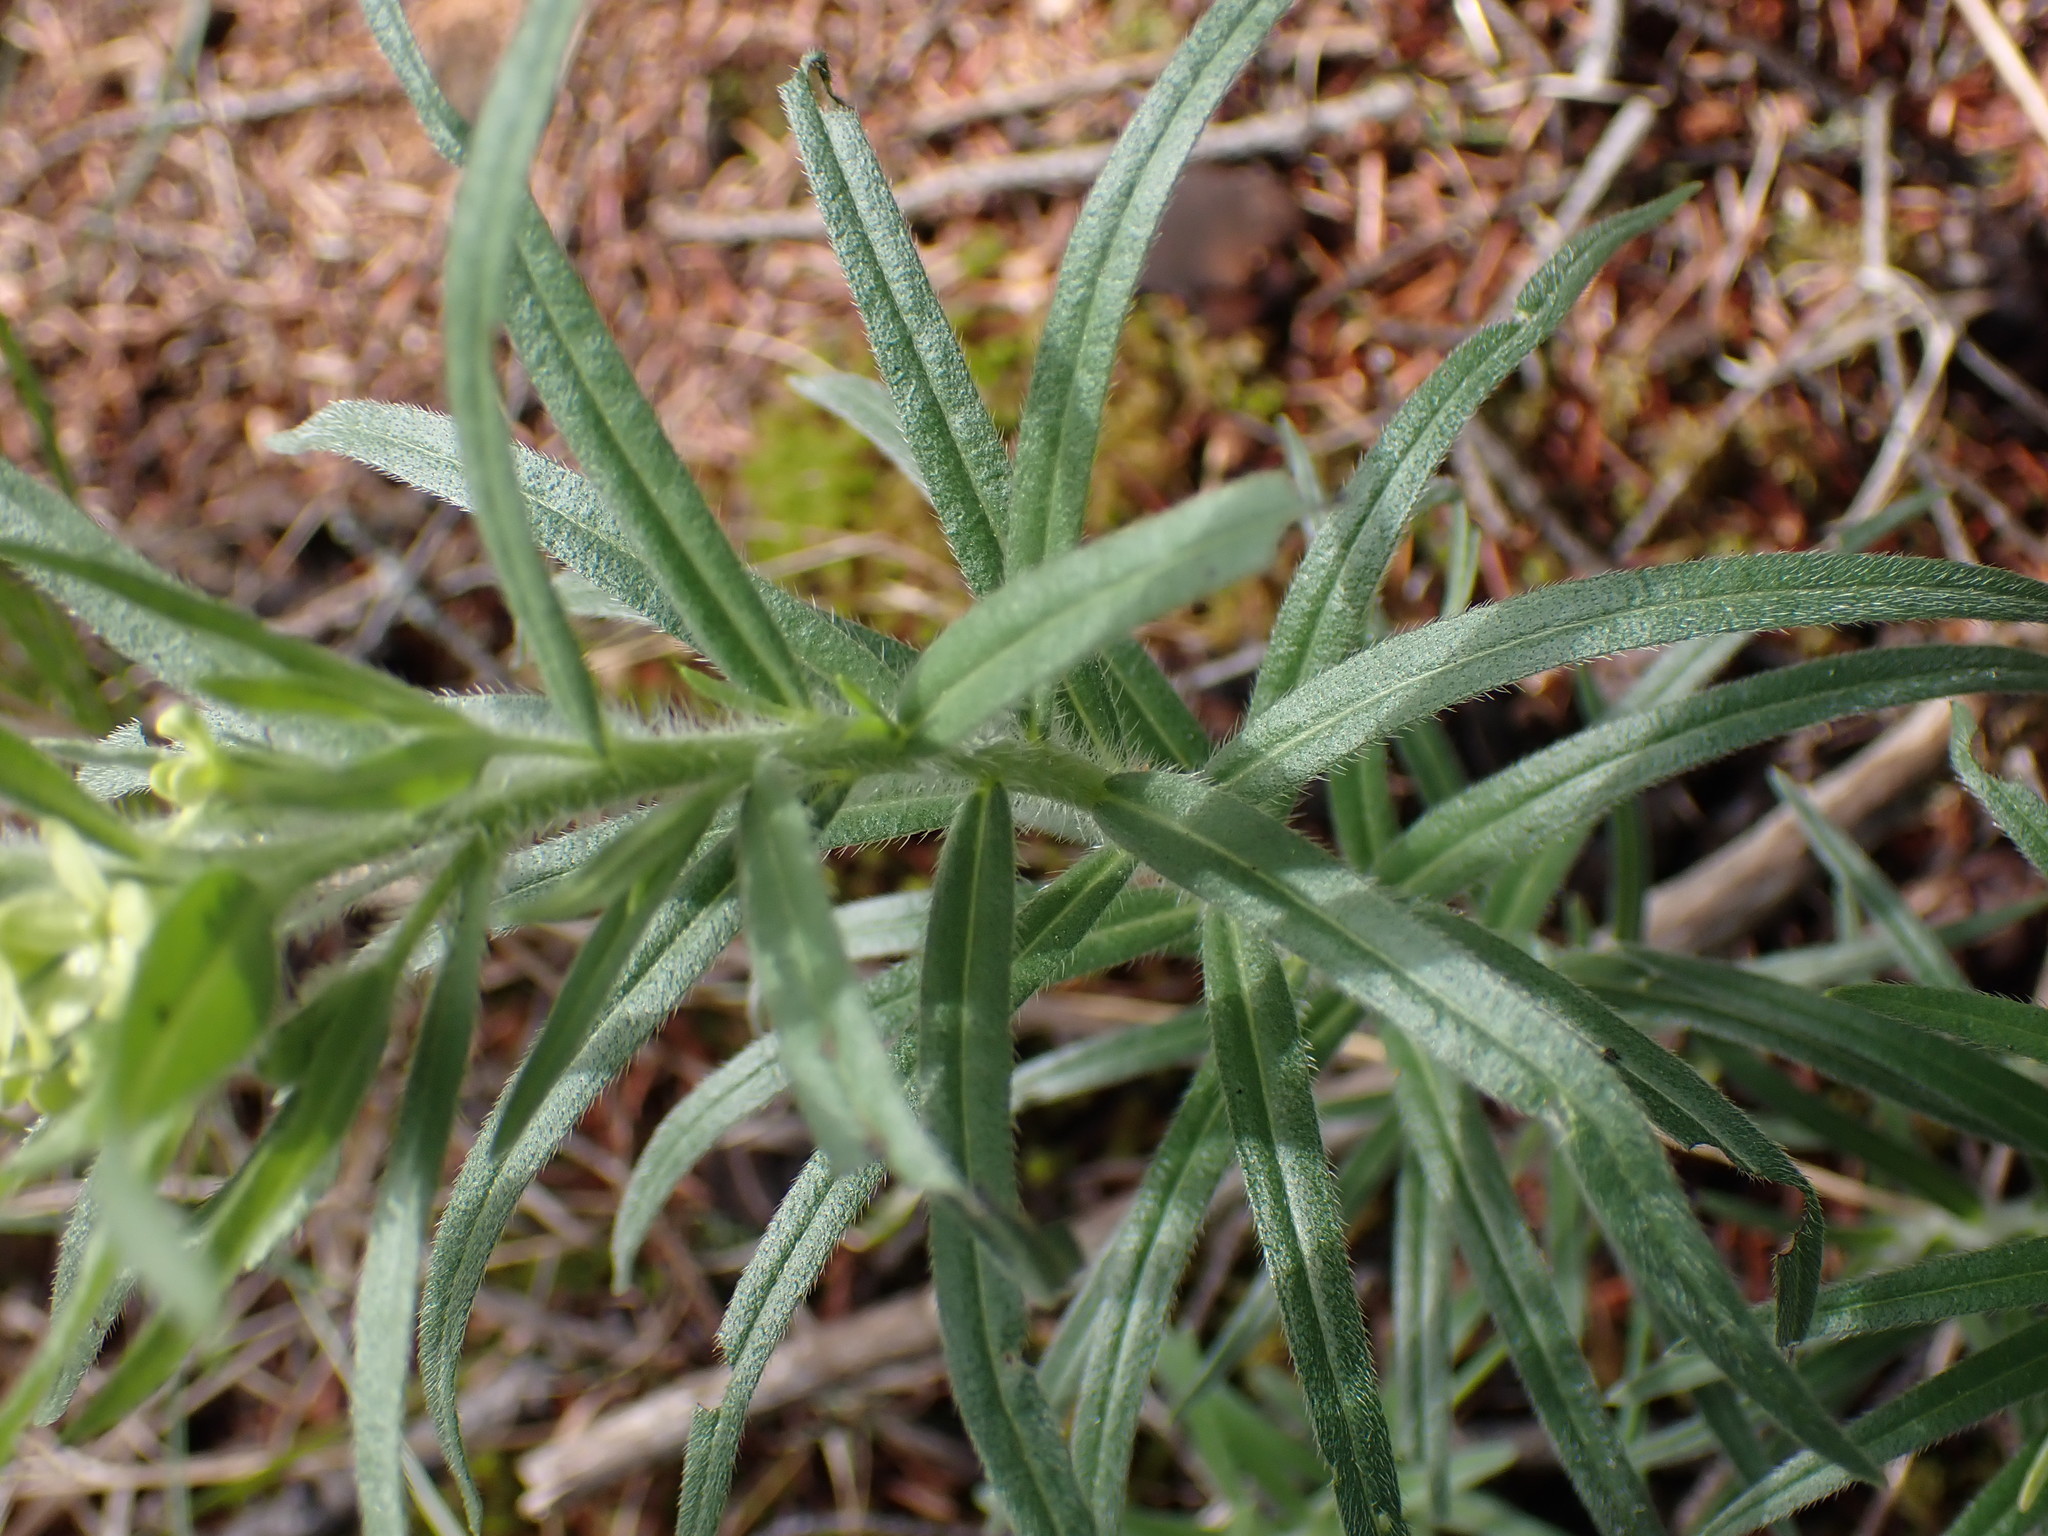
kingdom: Plantae
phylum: Tracheophyta
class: Magnoliopsida
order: Boraginales
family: Boraginaceae
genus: Lithospermum
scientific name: Lithospermum ruderale
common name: Western gromwell
